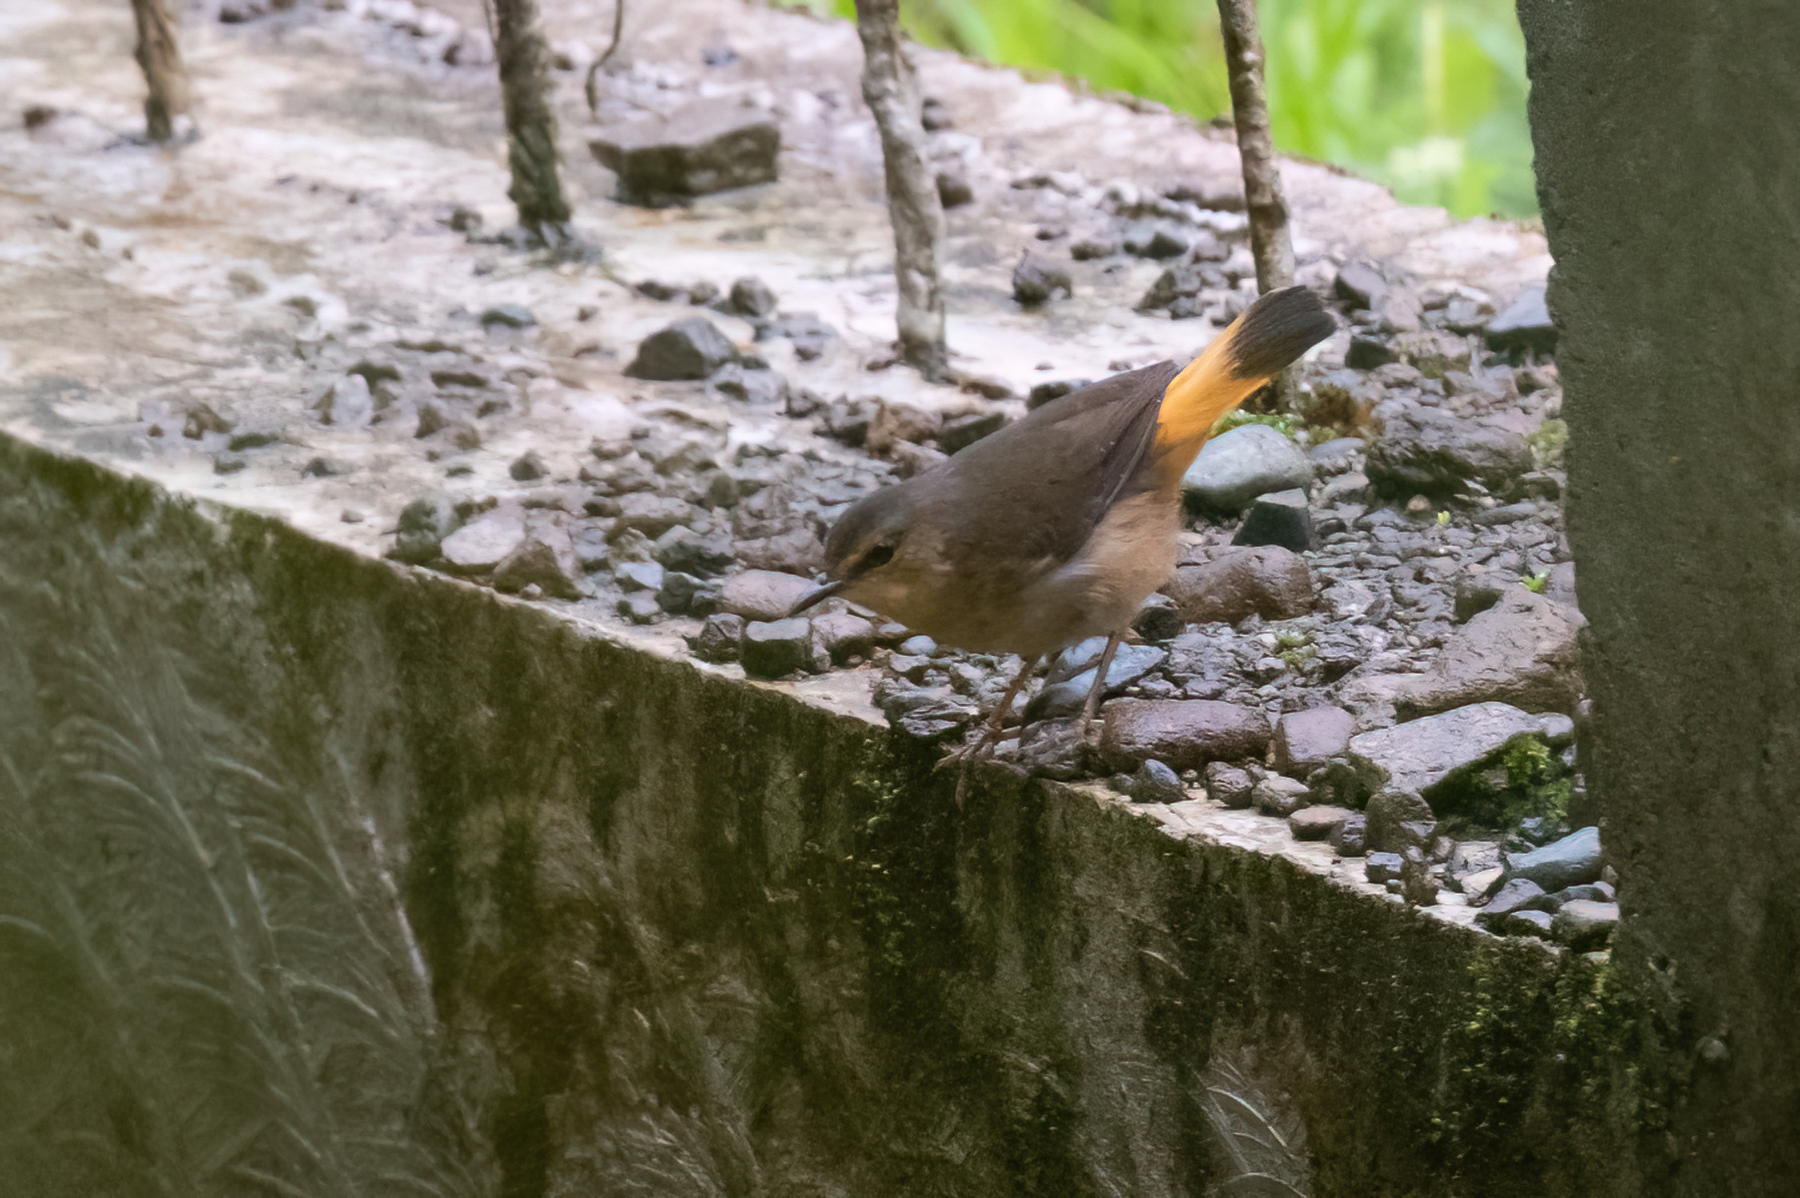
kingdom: Animalia
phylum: Chordata
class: Aves
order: Passeriformes
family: Parulidae
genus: Myiothlypis
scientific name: Myiothlypis fulvicauda
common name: Buff-rumped warbler
